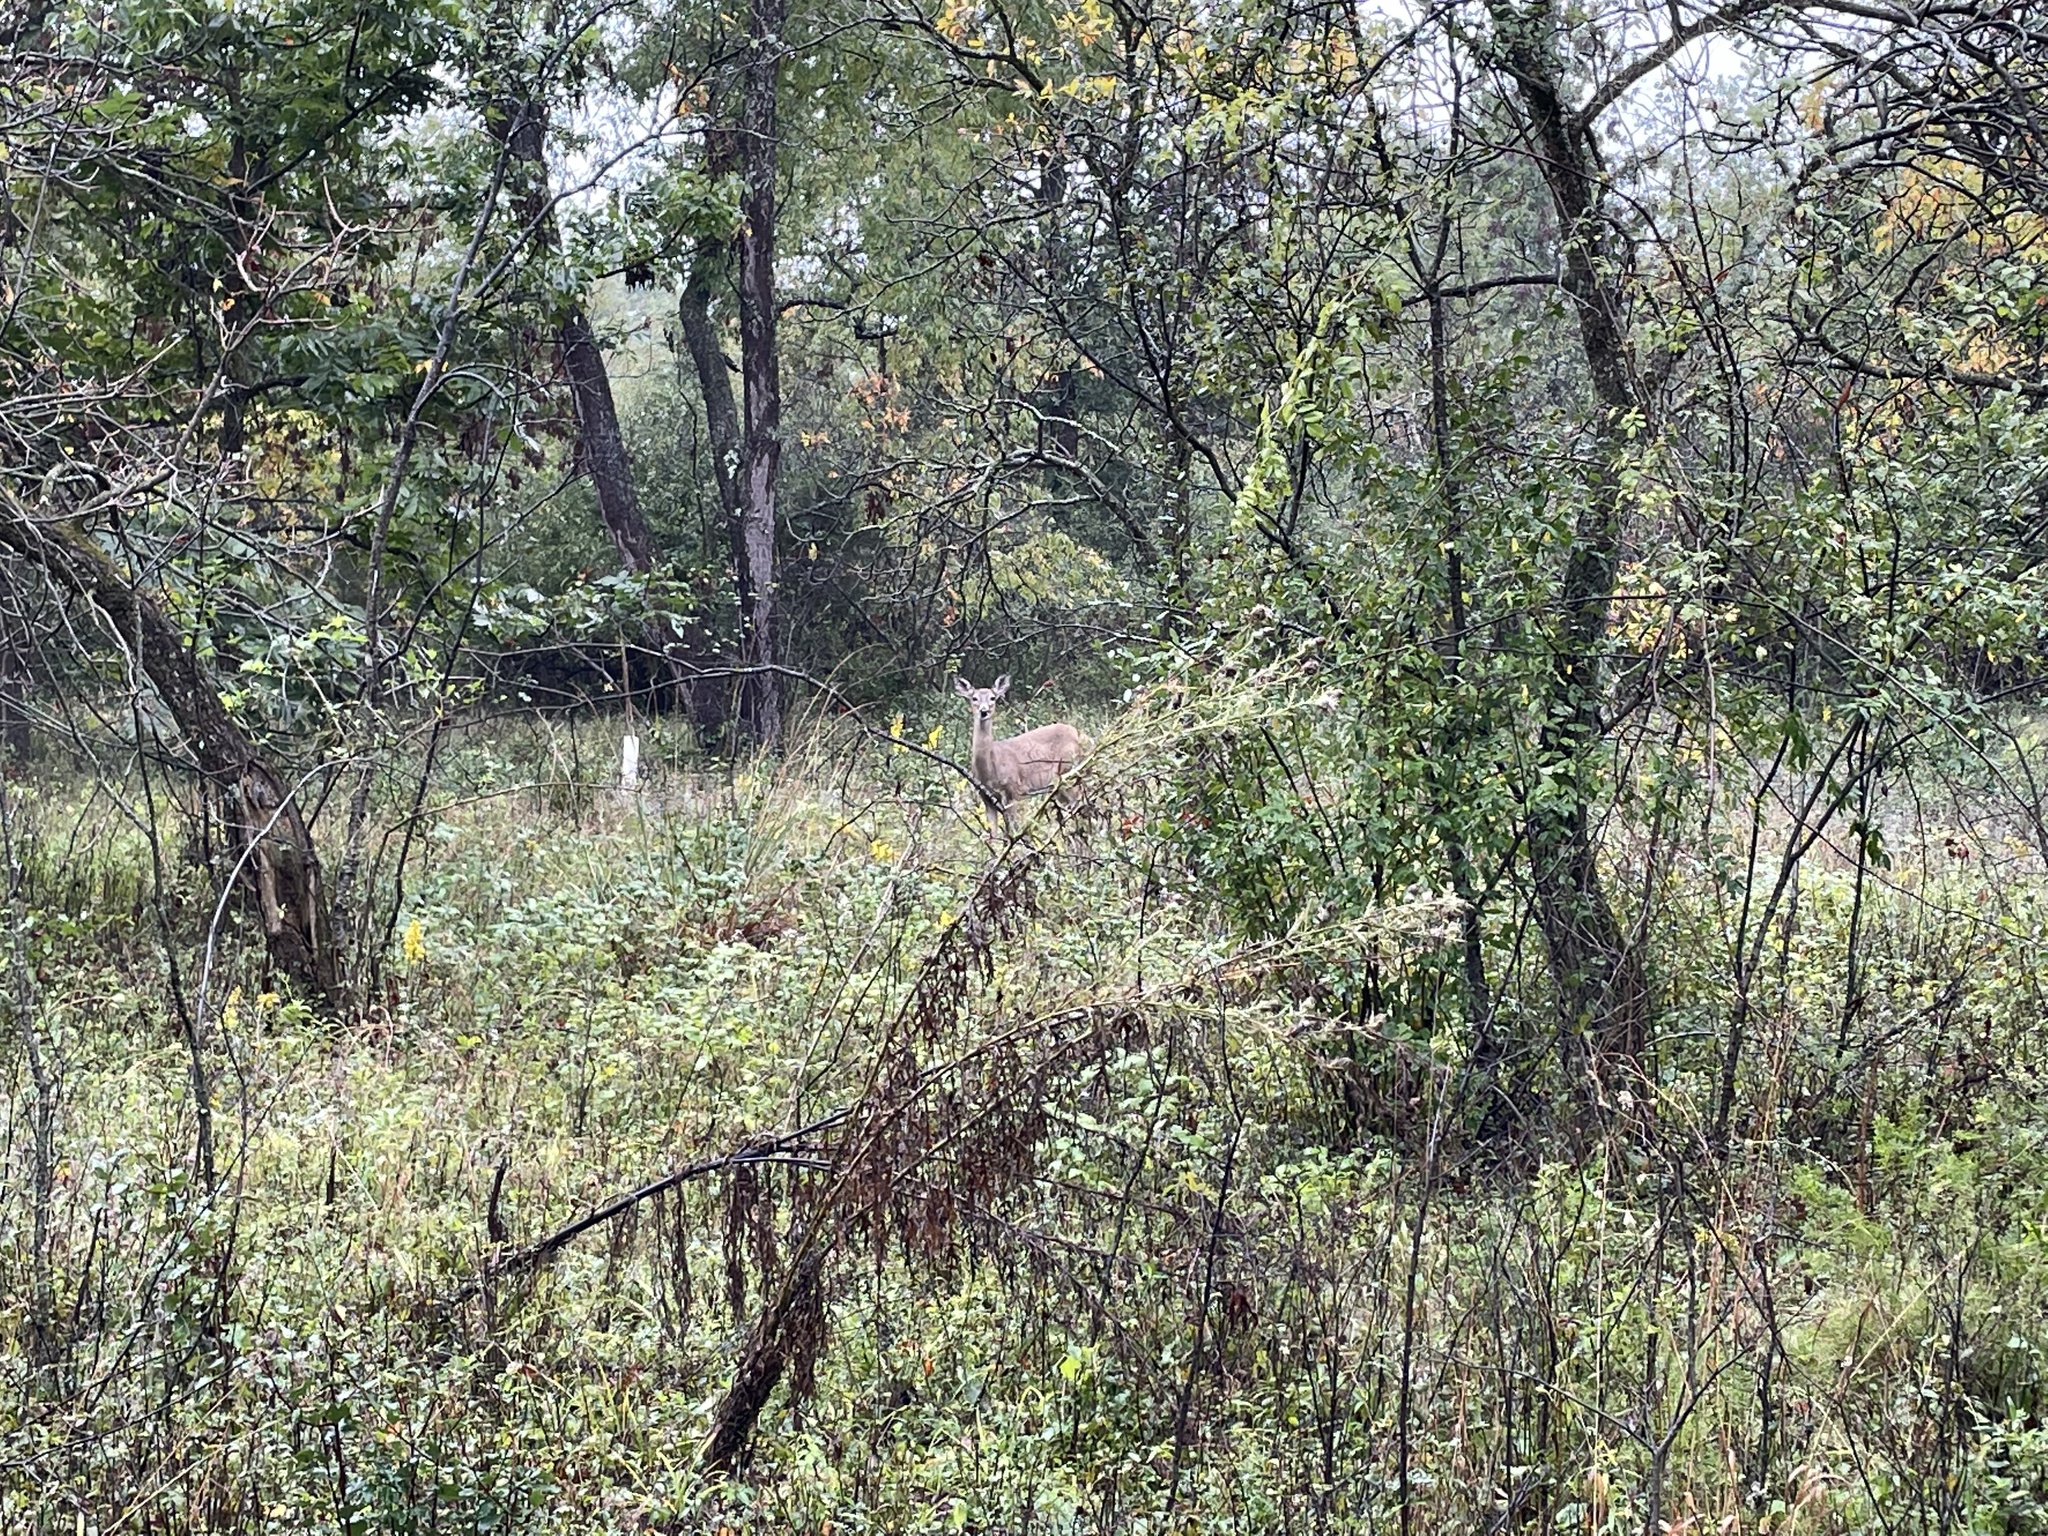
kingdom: Animalia
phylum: Chordata
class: Mammalia
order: Artiodactyla
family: Cervidae
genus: Odocoileus
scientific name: Odocoileus virginianus
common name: White-tailed deer
